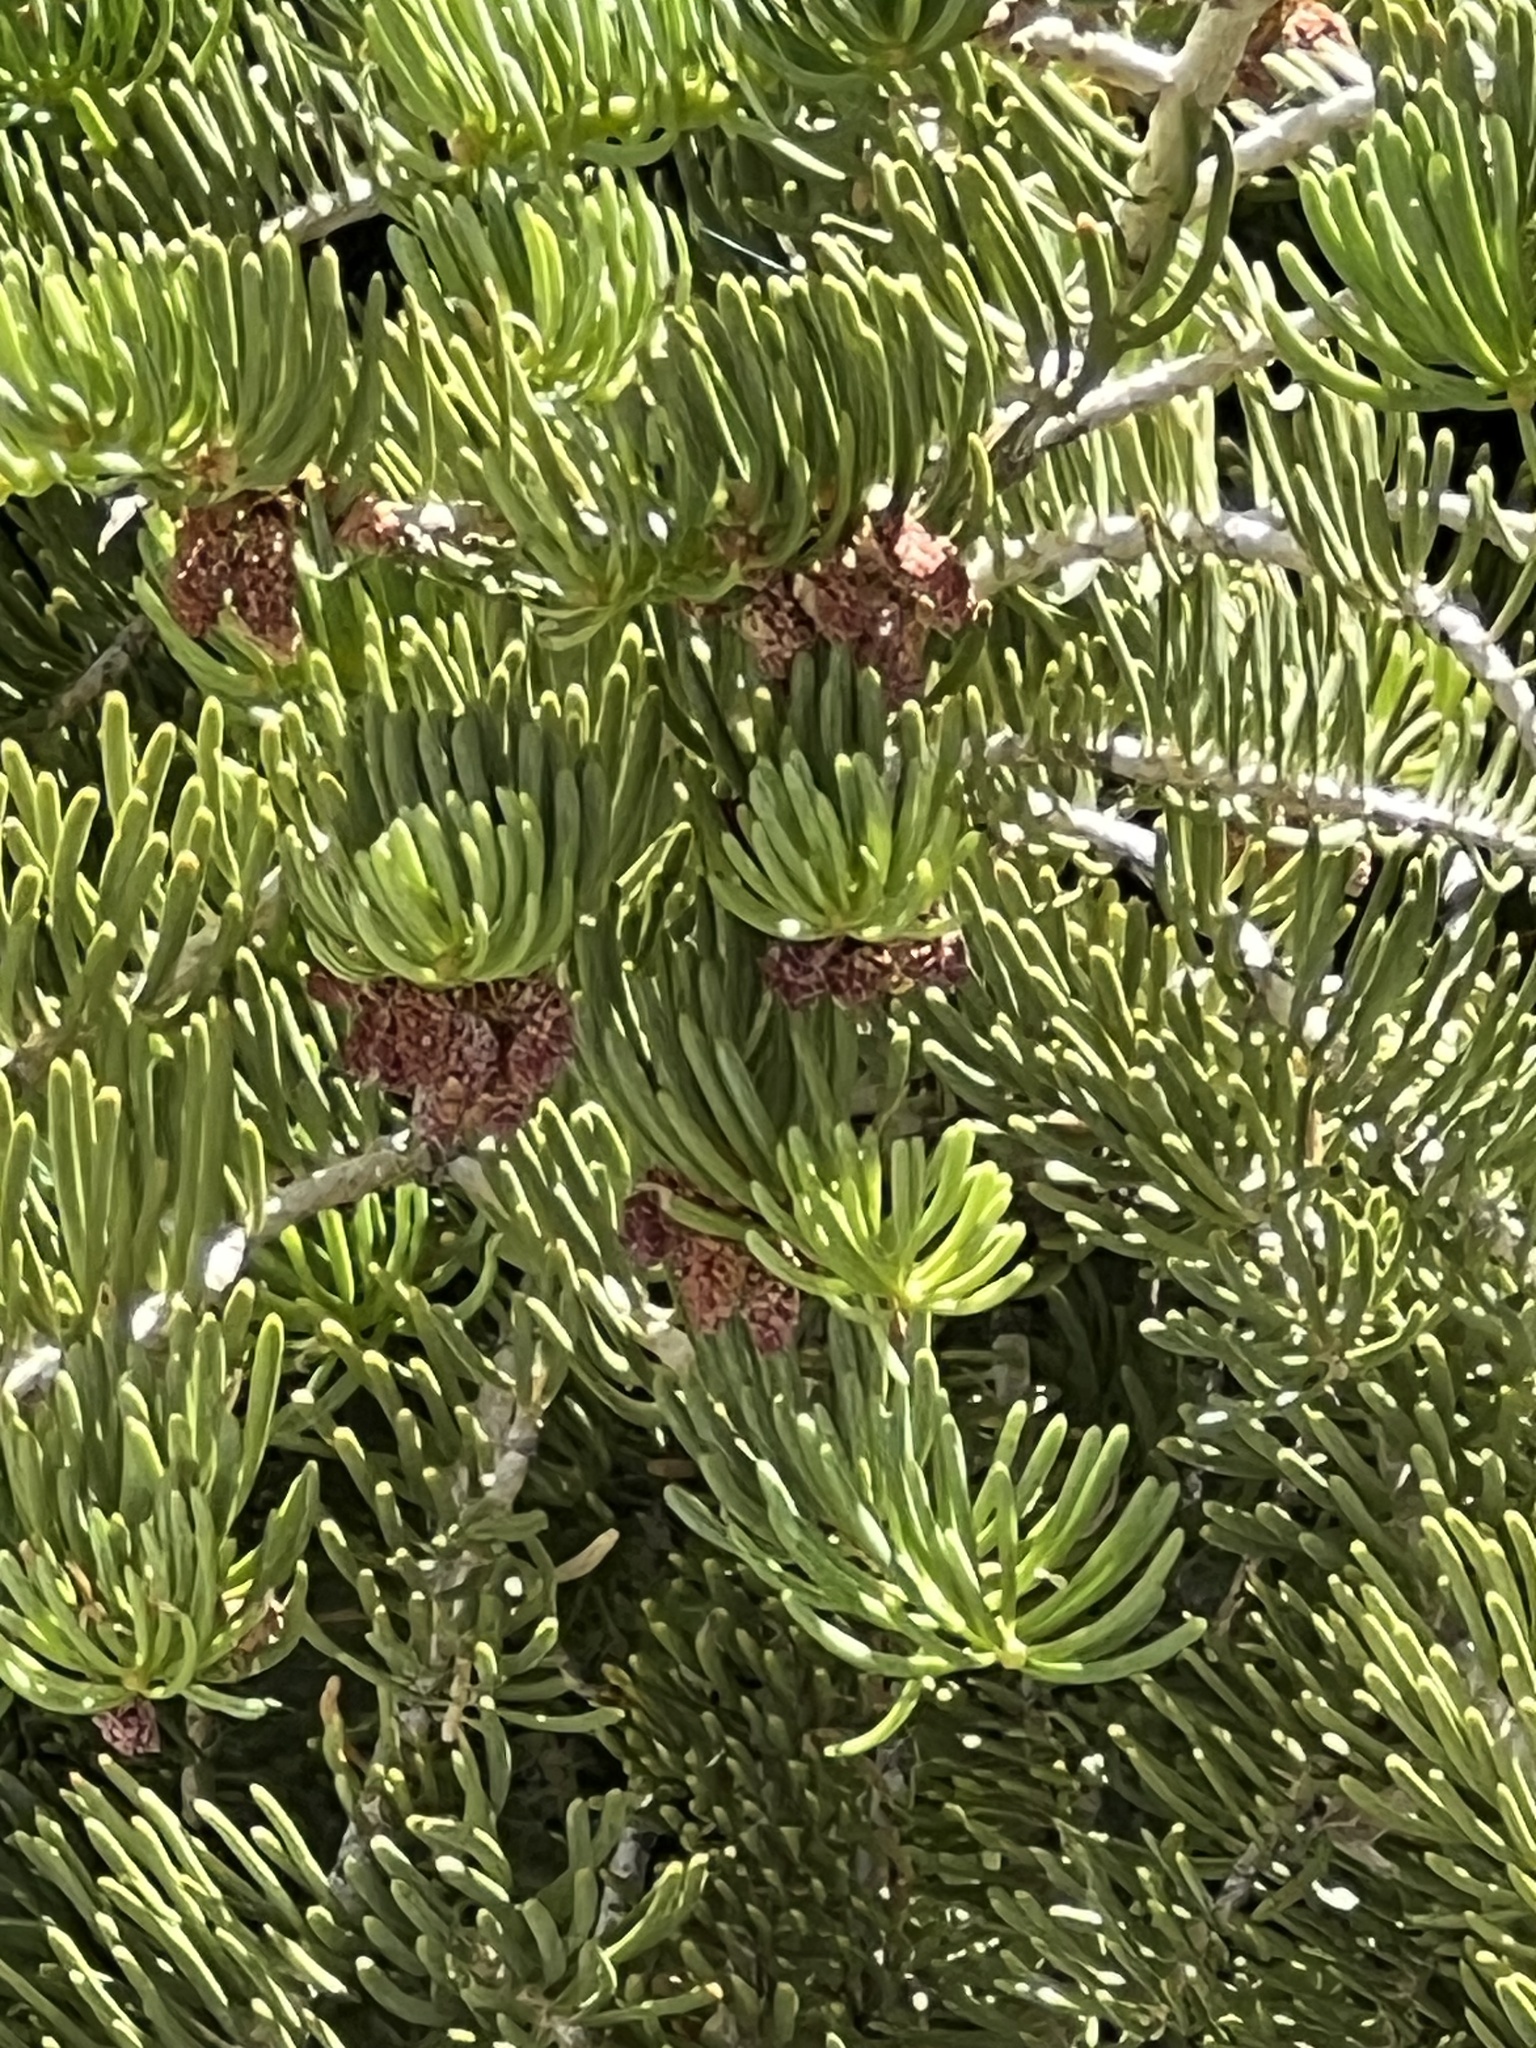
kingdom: Plantae
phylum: Tracheophyta
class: Pinopsida
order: Pinales
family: Pinaceae
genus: Abies
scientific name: Abies concolor
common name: Colorado fir
